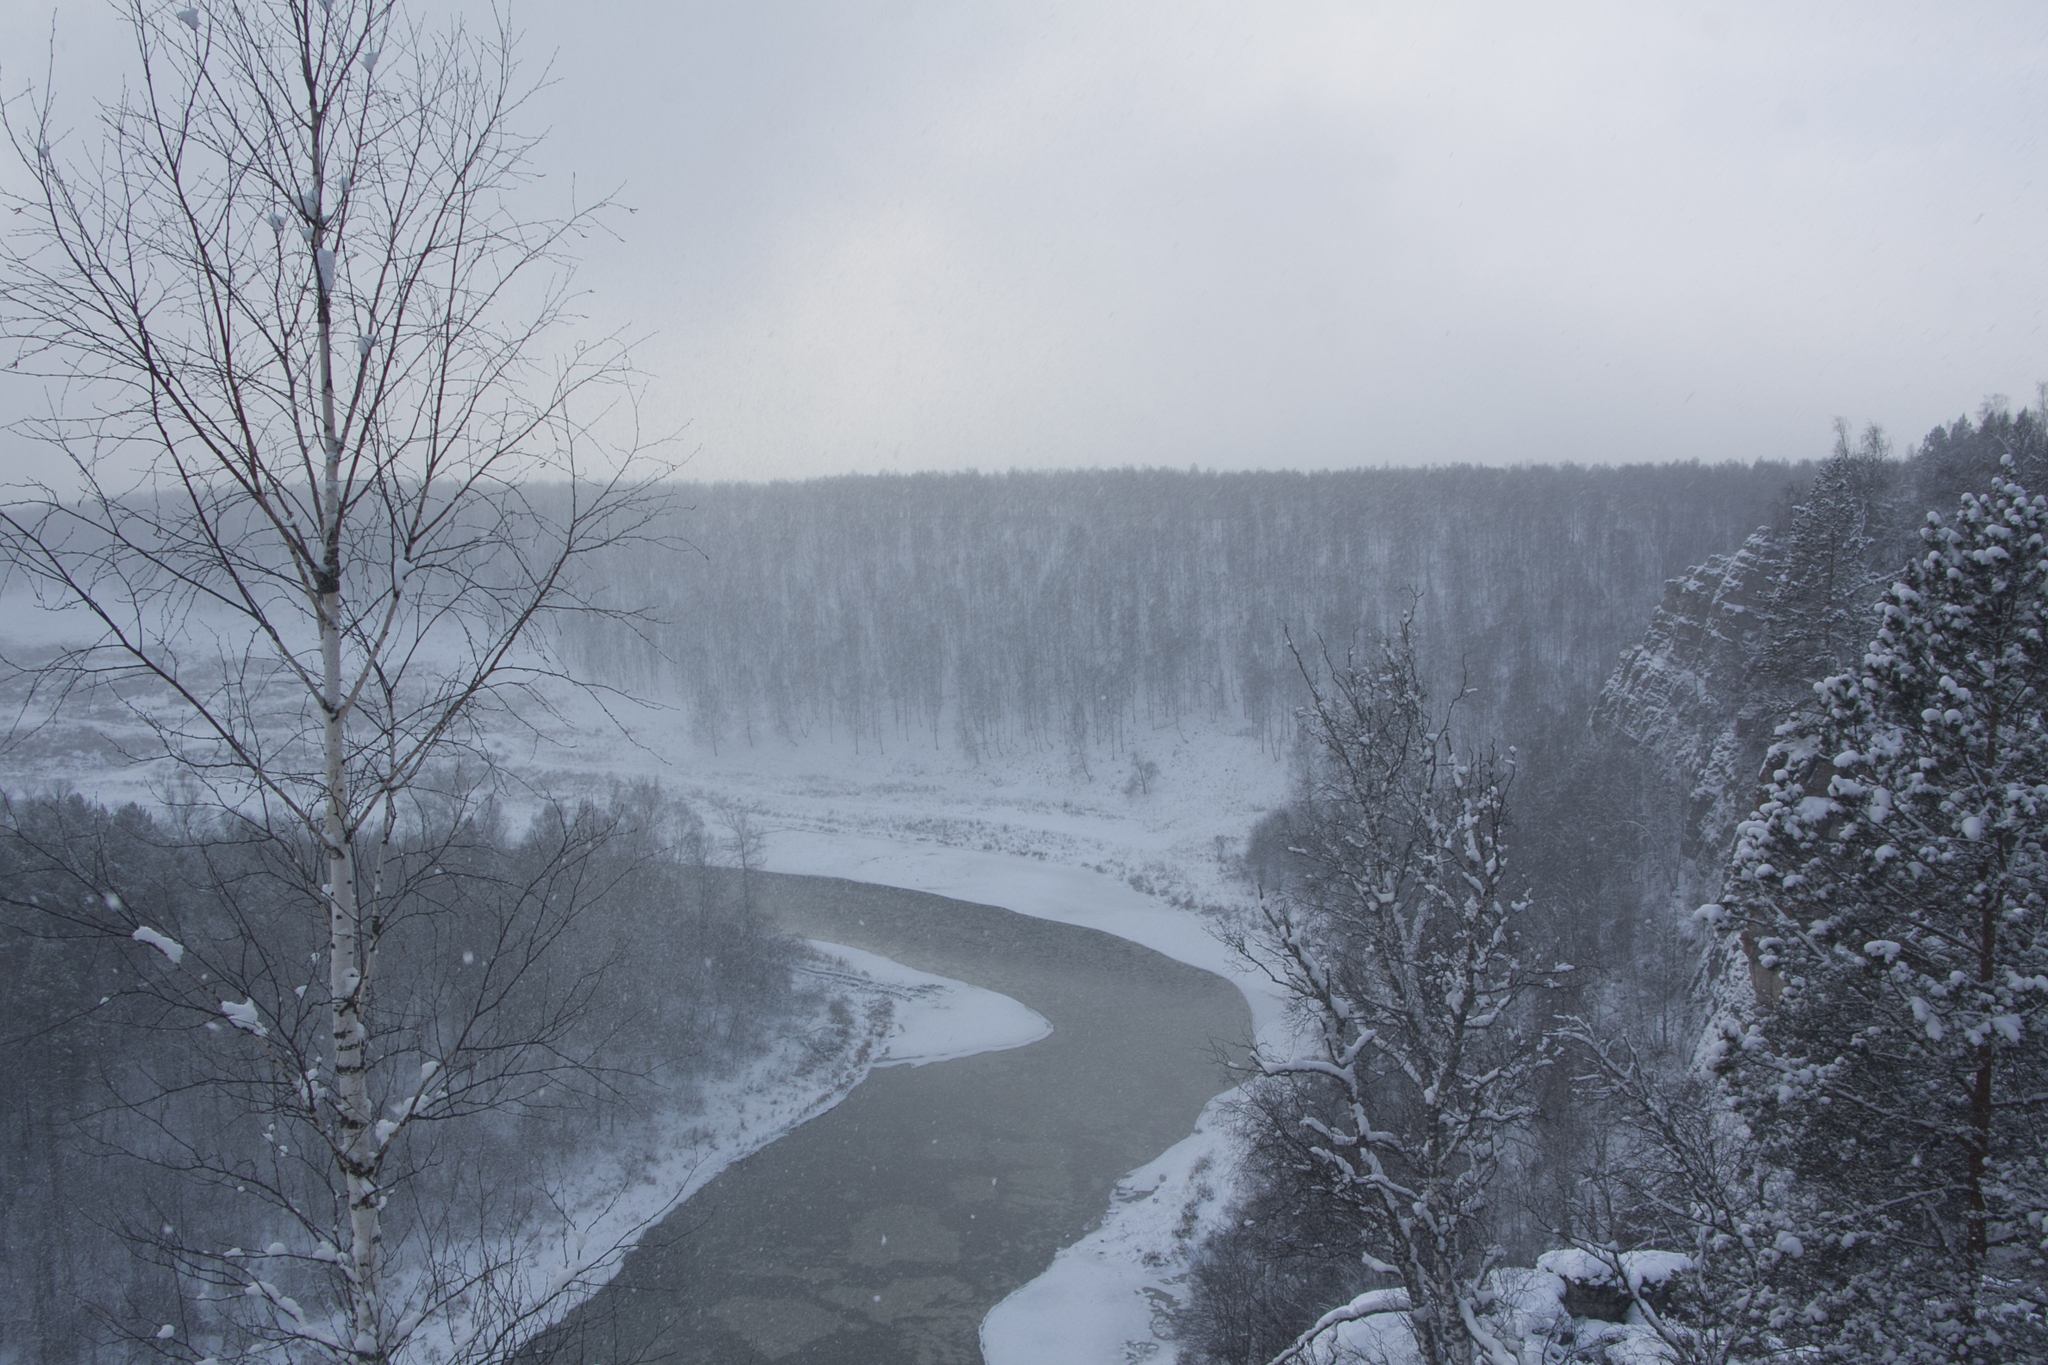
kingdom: Plantae
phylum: Tracheophyta
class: Magnoliopsida
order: Fagales
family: Betulaceae
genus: Betula
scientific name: Betula pendula
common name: Silver birch
